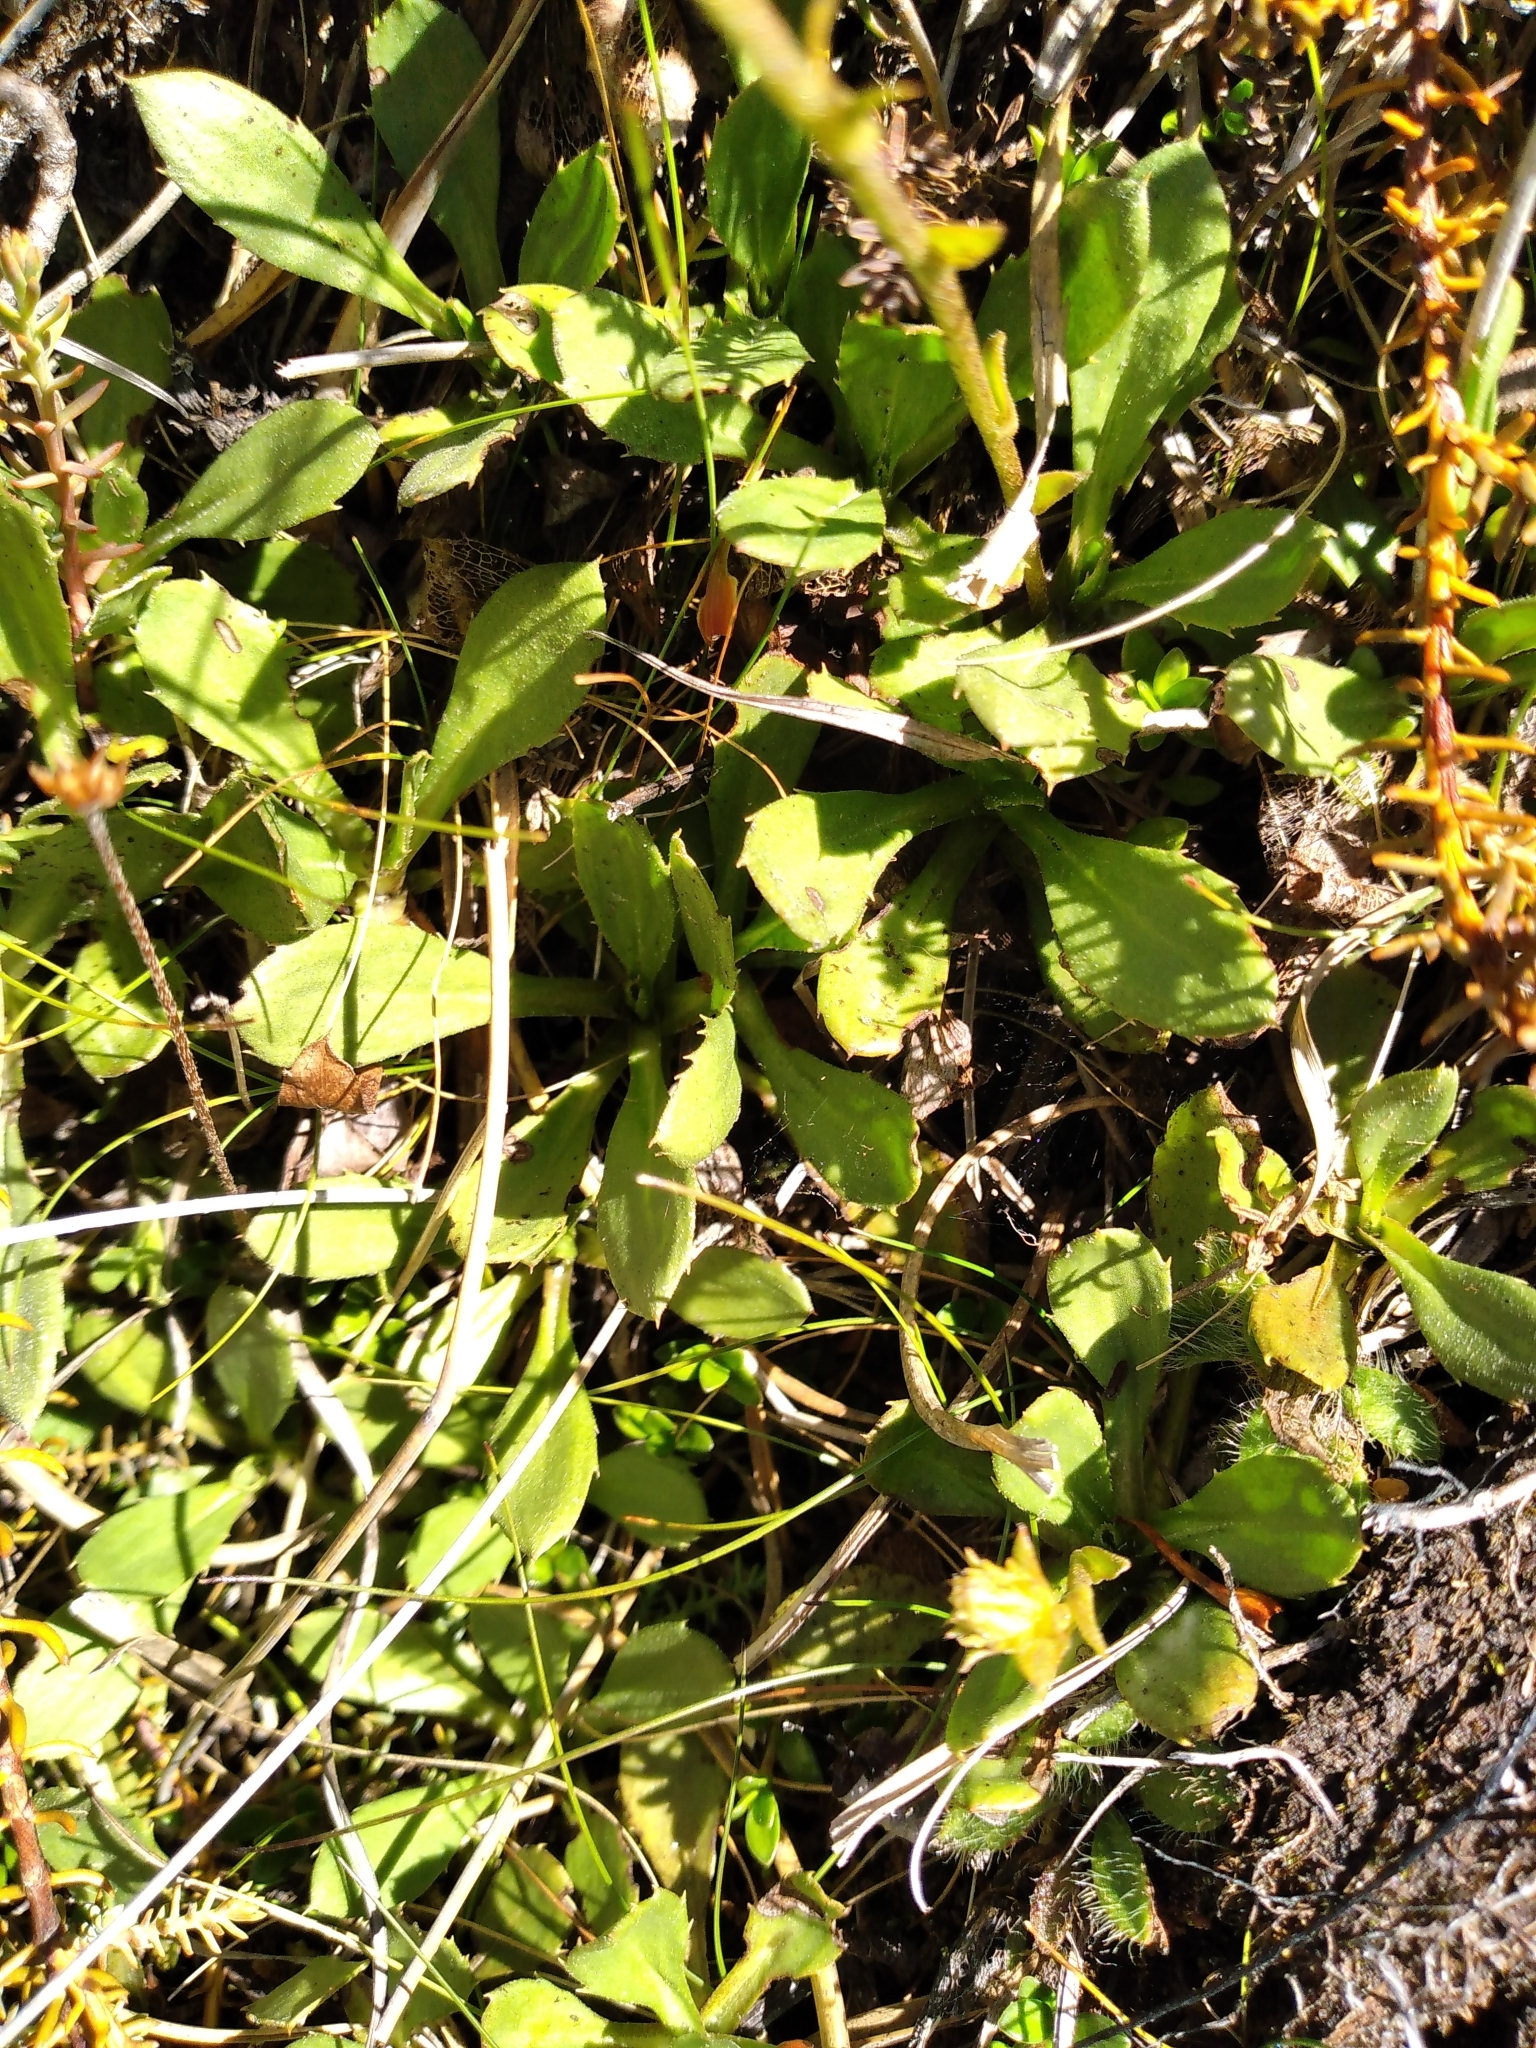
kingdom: Plantae
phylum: Tracheophyta
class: Magnoliopsida
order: Asterales
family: Asteraceae
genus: Celmisia
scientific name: Celmisia glandulosa
